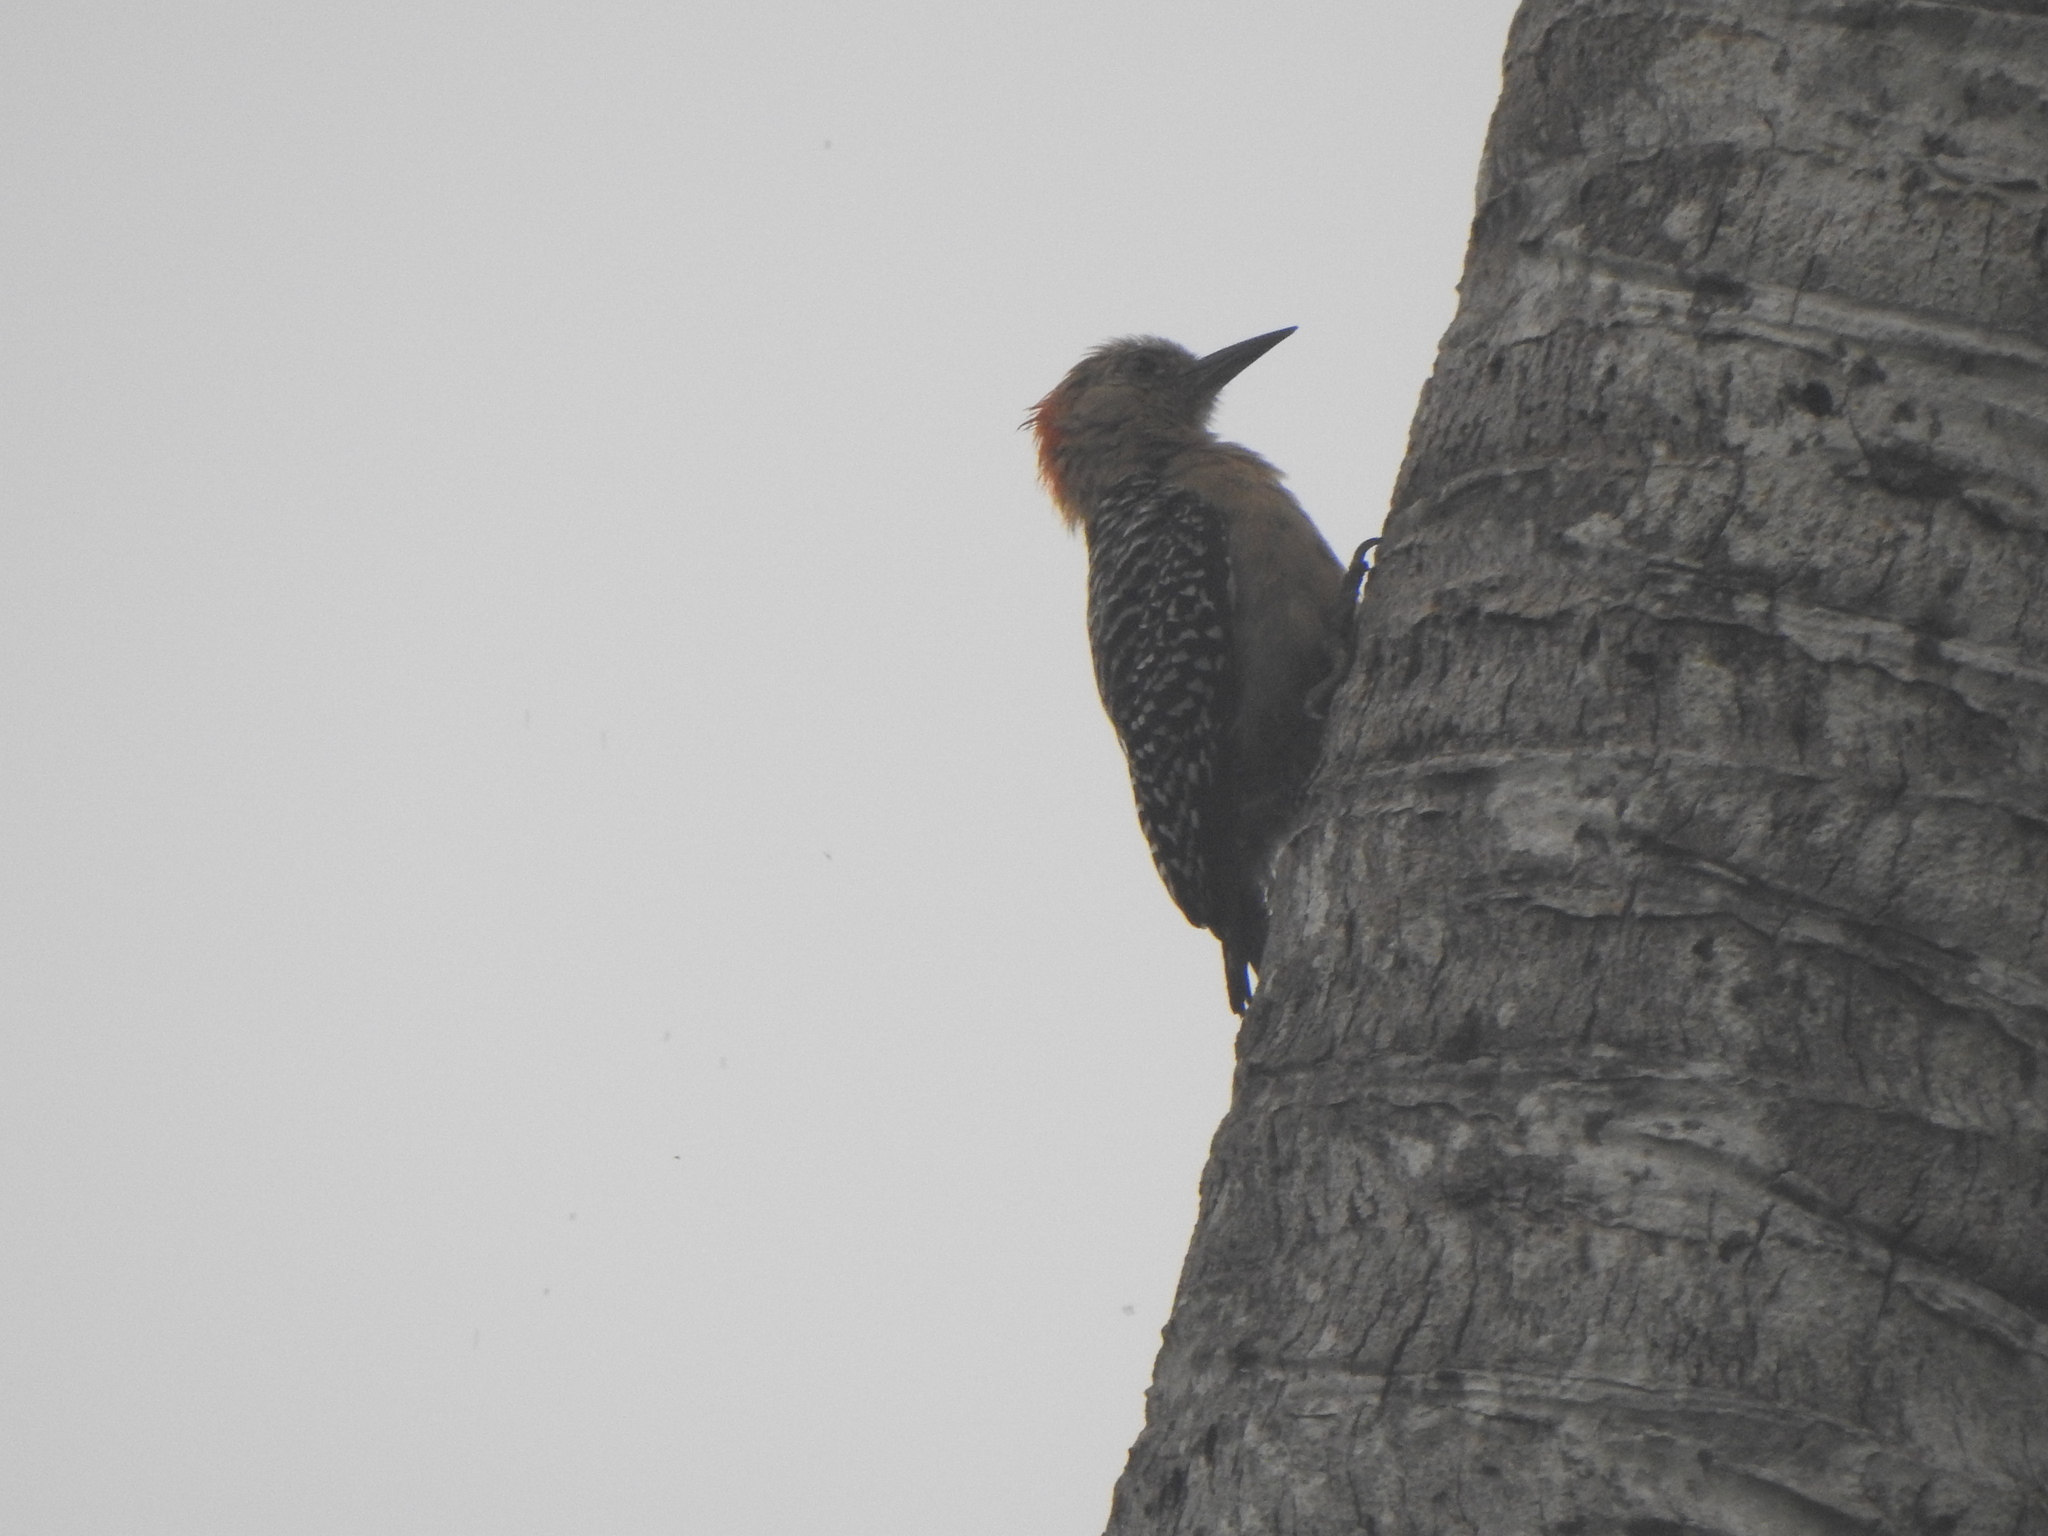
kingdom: Animalia
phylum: Chordata
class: Aves
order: Piciformes
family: Picidae
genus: Melanerpes
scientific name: Melanerpes rubricapillus
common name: Red-crowned woodpecker
